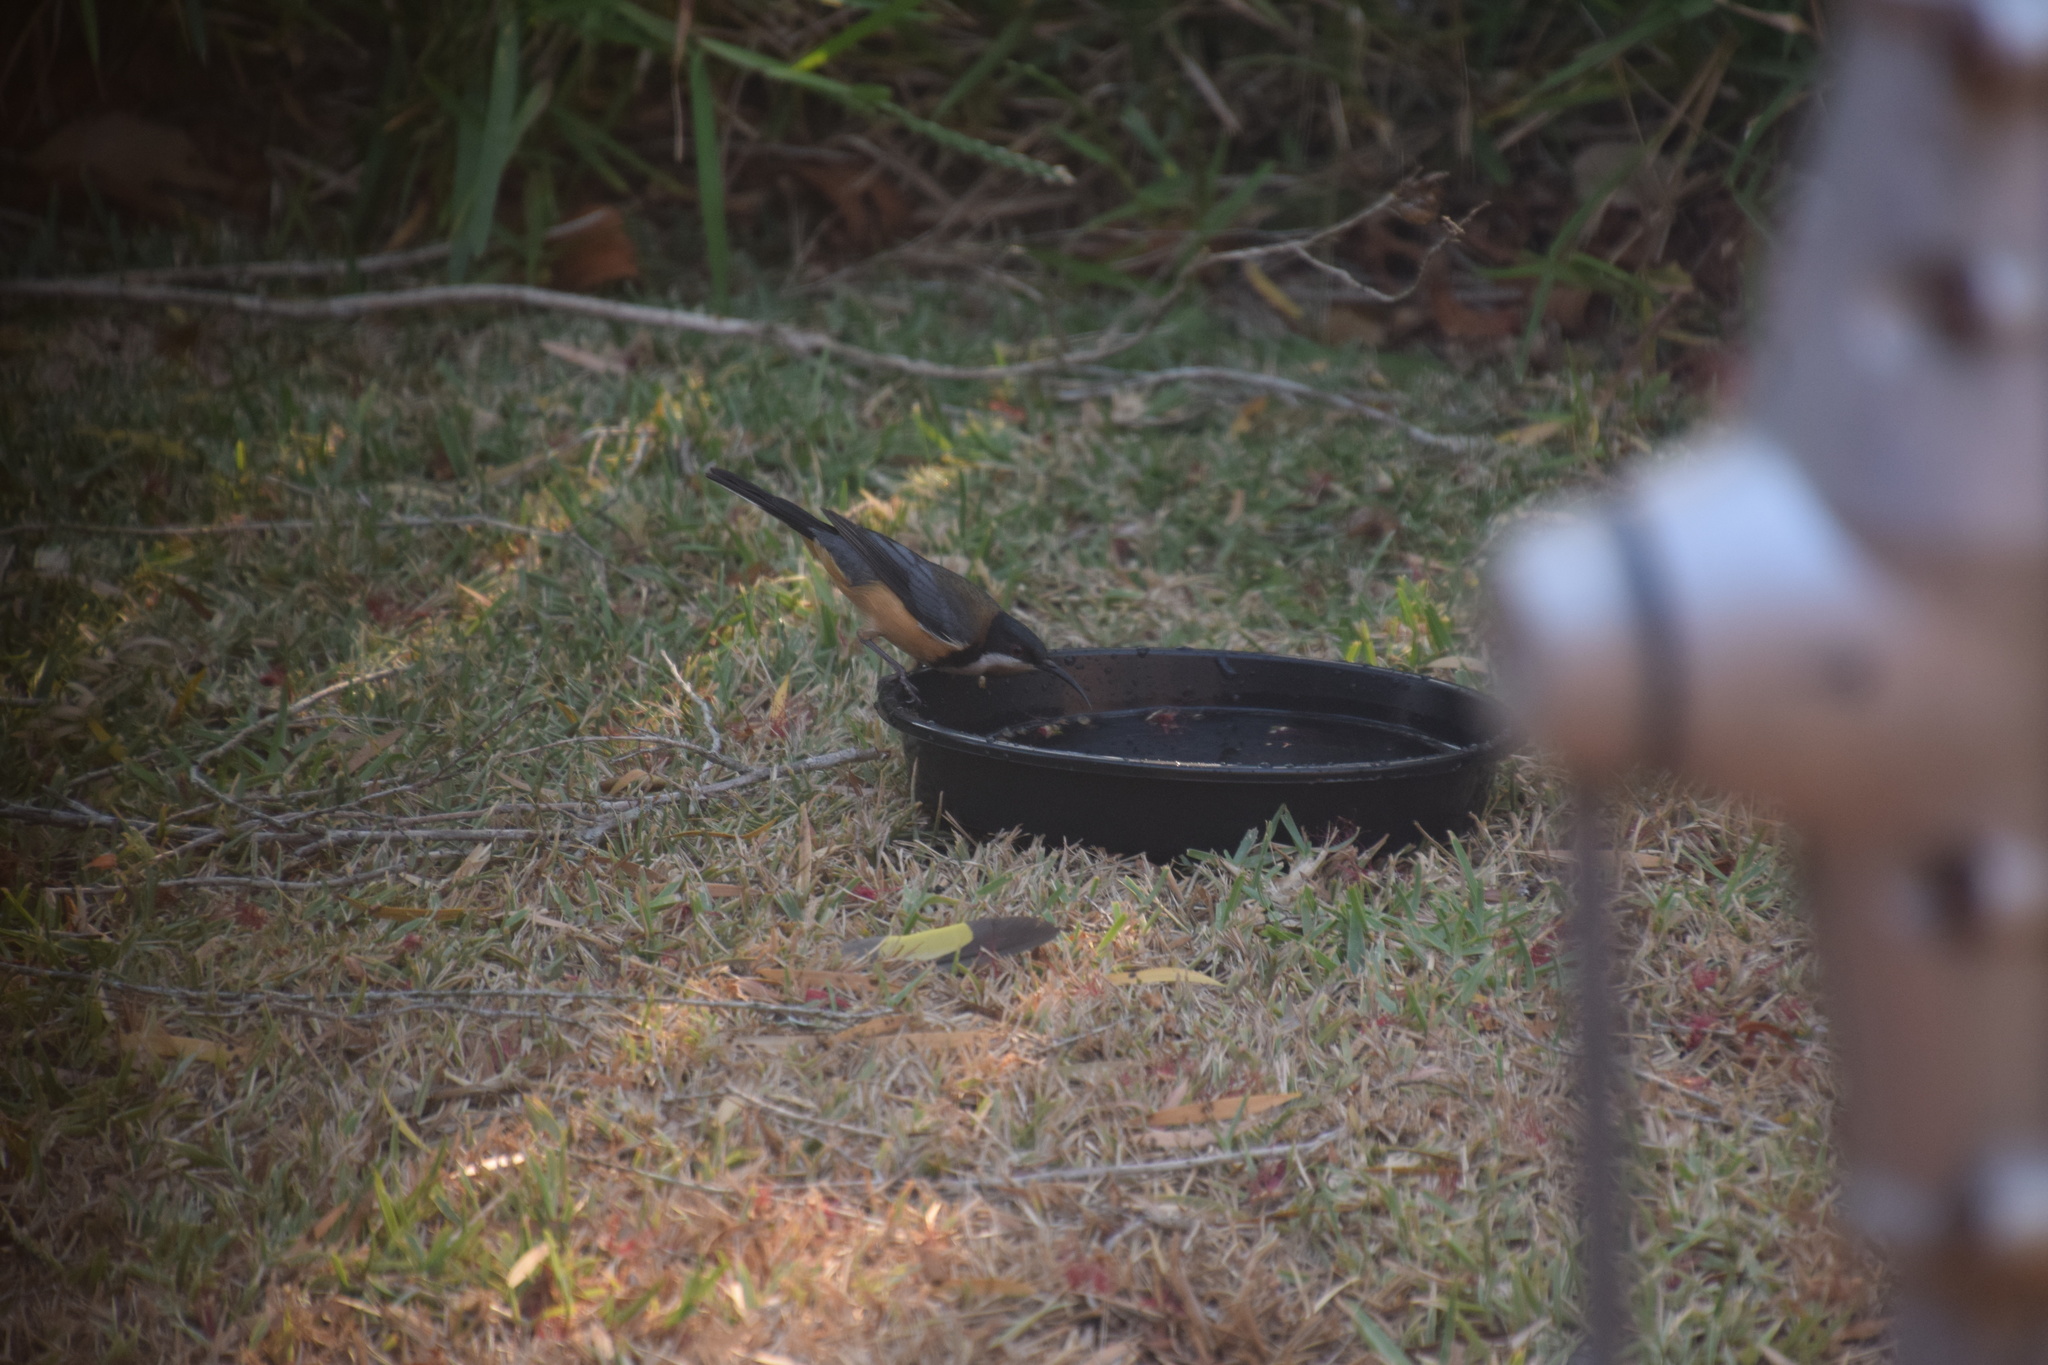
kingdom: Animalia
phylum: Chordata
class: Aves
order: Passeriformes
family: Meliphagidae
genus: Acanthorhynchus
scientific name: Acanthorhynchus tenuirostris
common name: Eastern spinebill
